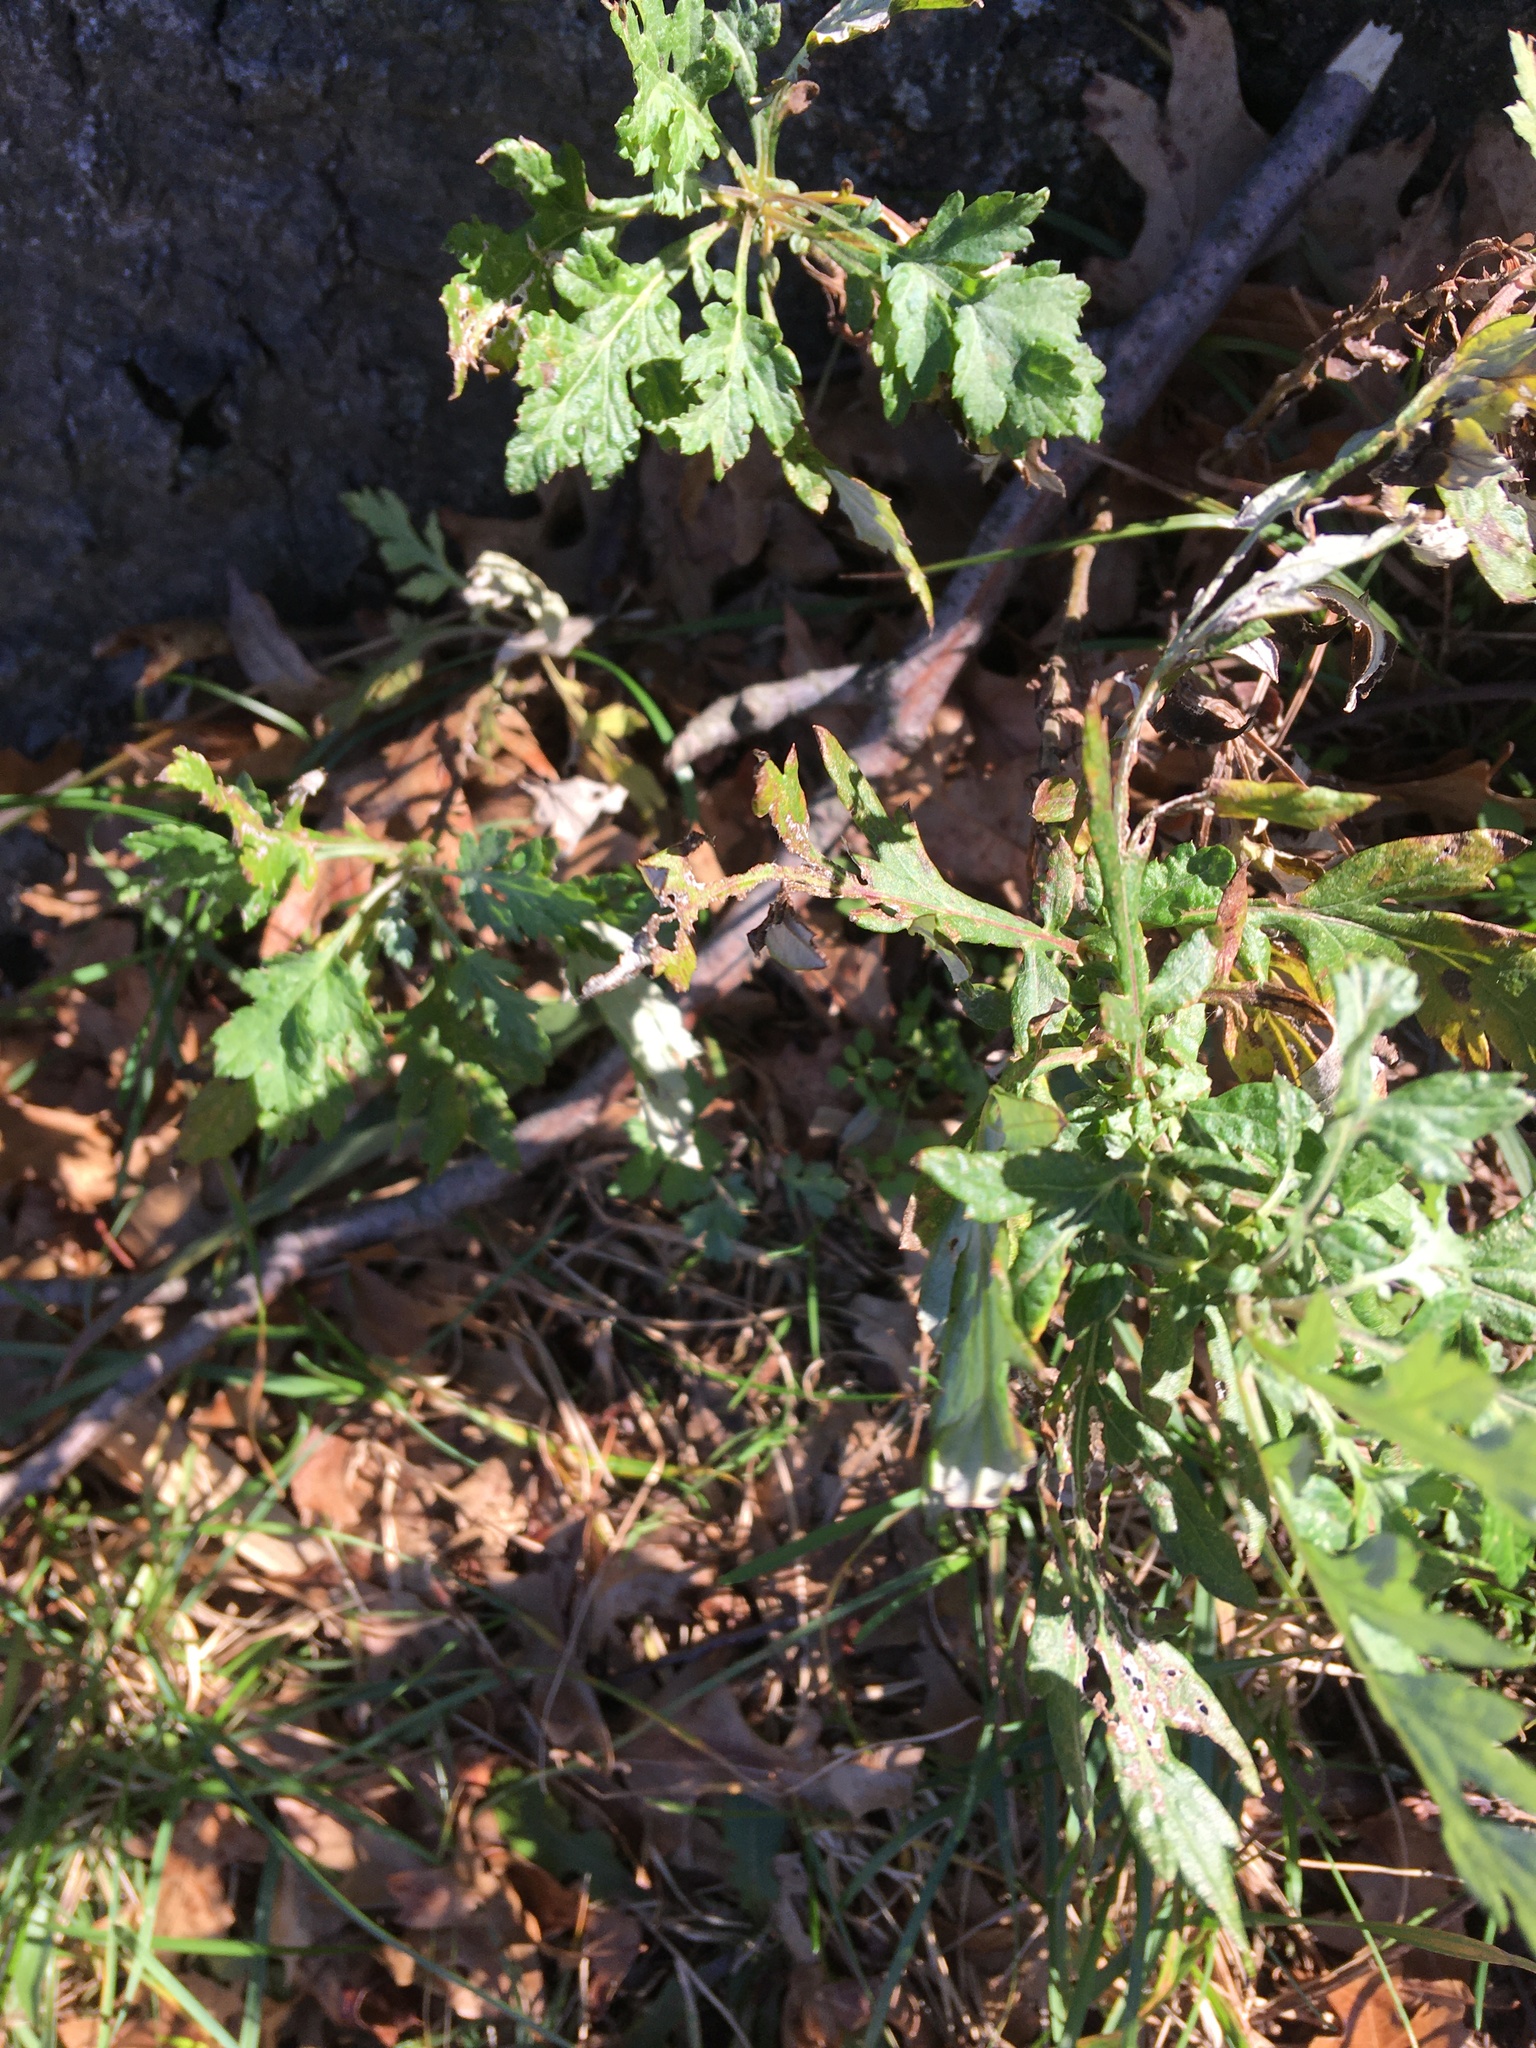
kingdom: Plantae
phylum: Tracheophyta
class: Magnoliopsida
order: Asterales
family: Asteraceae
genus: Artemisia
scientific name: Artemisia vulgaris
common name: Mugwort
